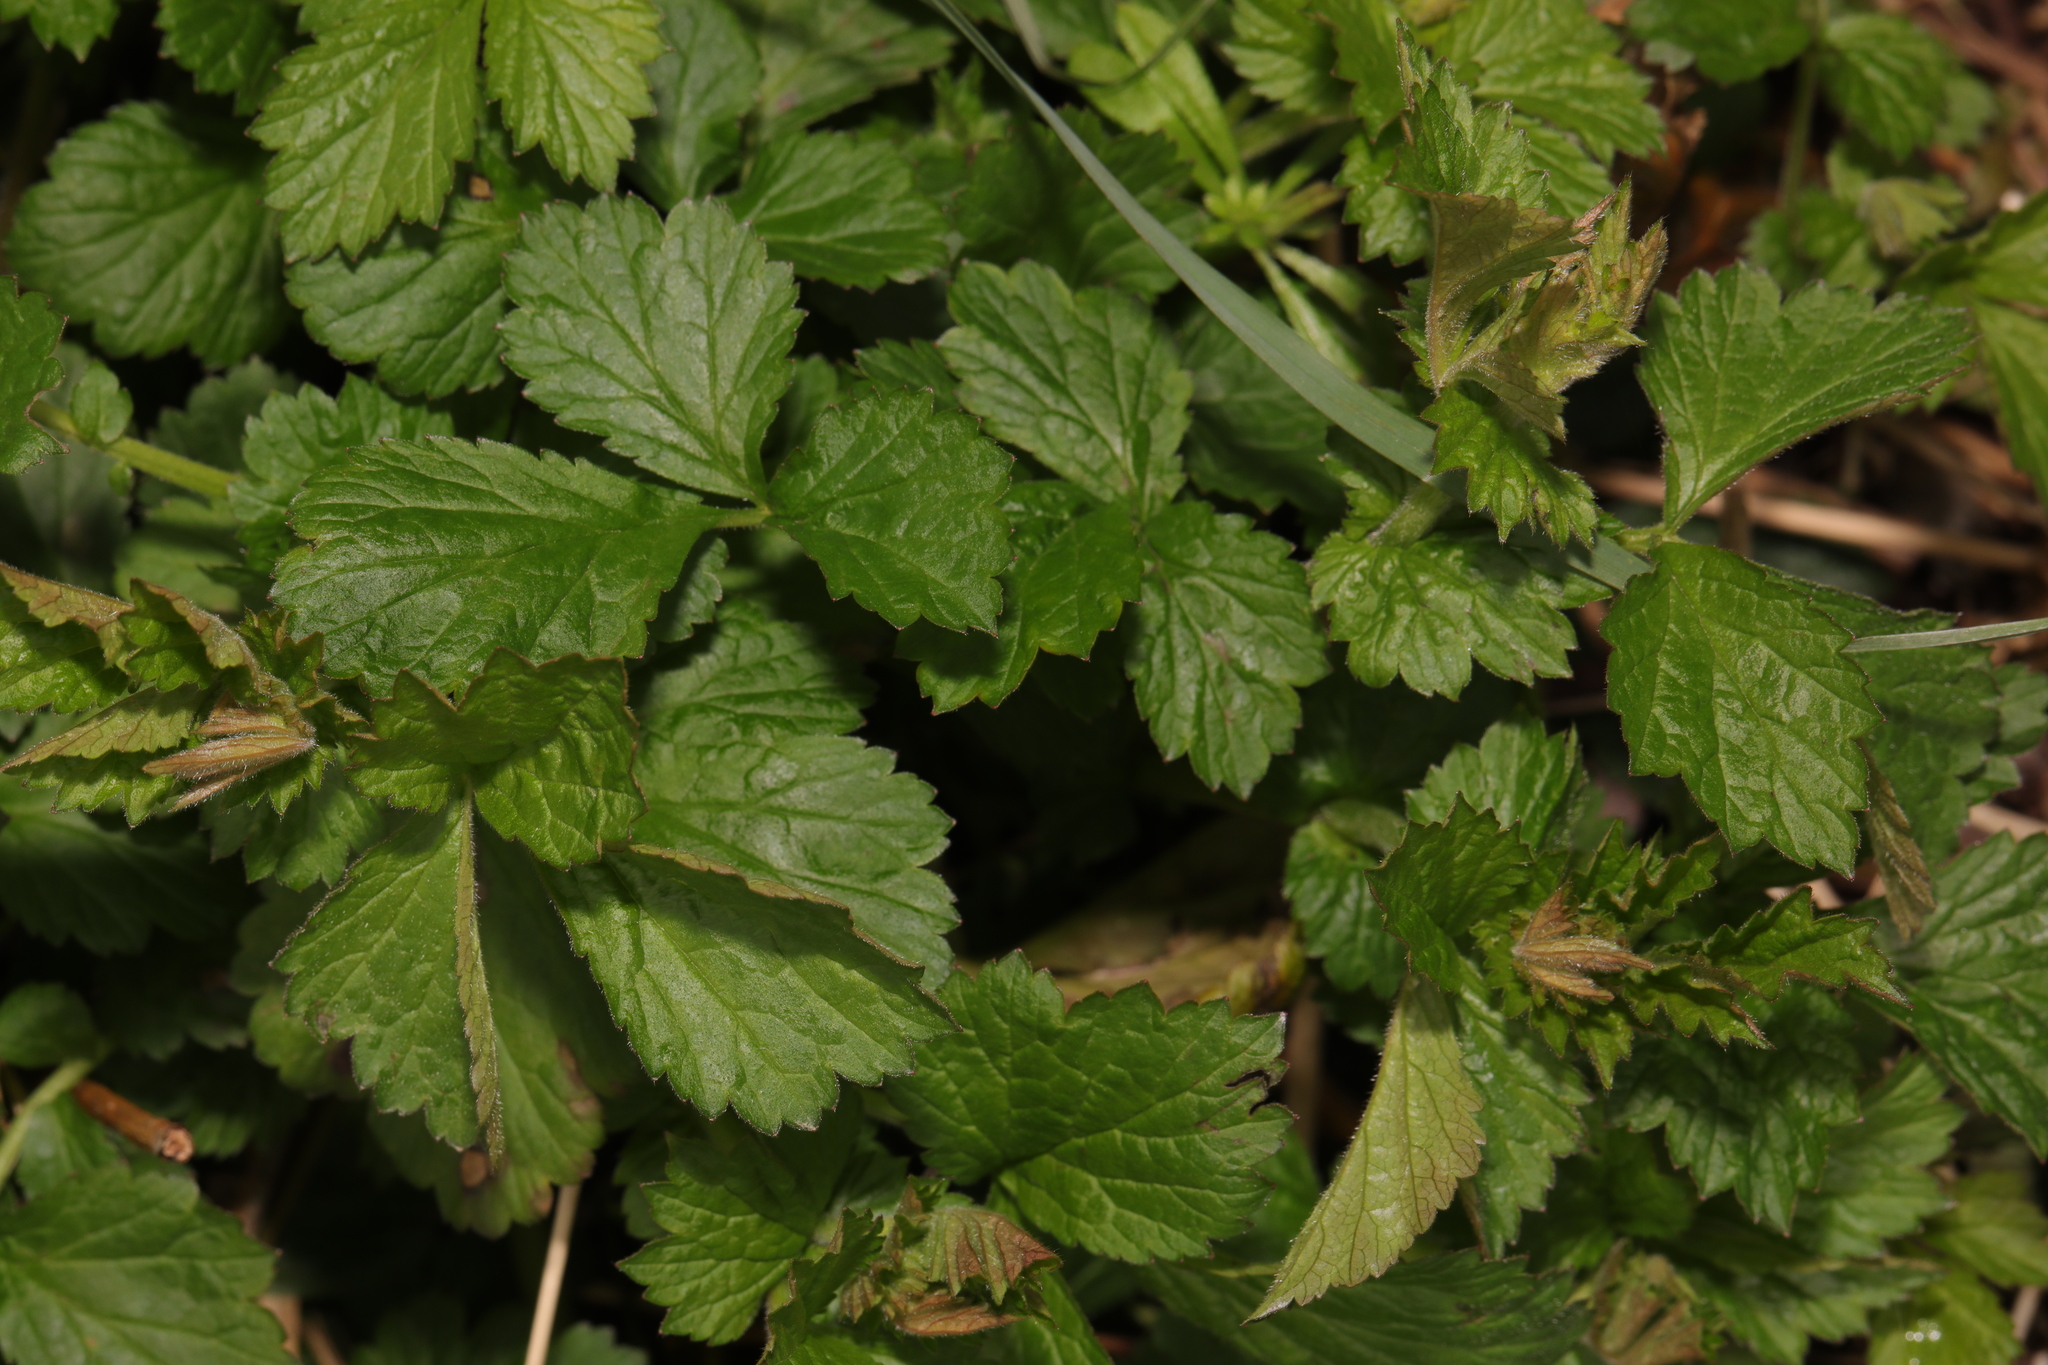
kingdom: Plantae
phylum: Tracheophyta
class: Magnoliopsida
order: Rosales
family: Rosaceae
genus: Geum
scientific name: Geum urbanum
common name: Wood avens
